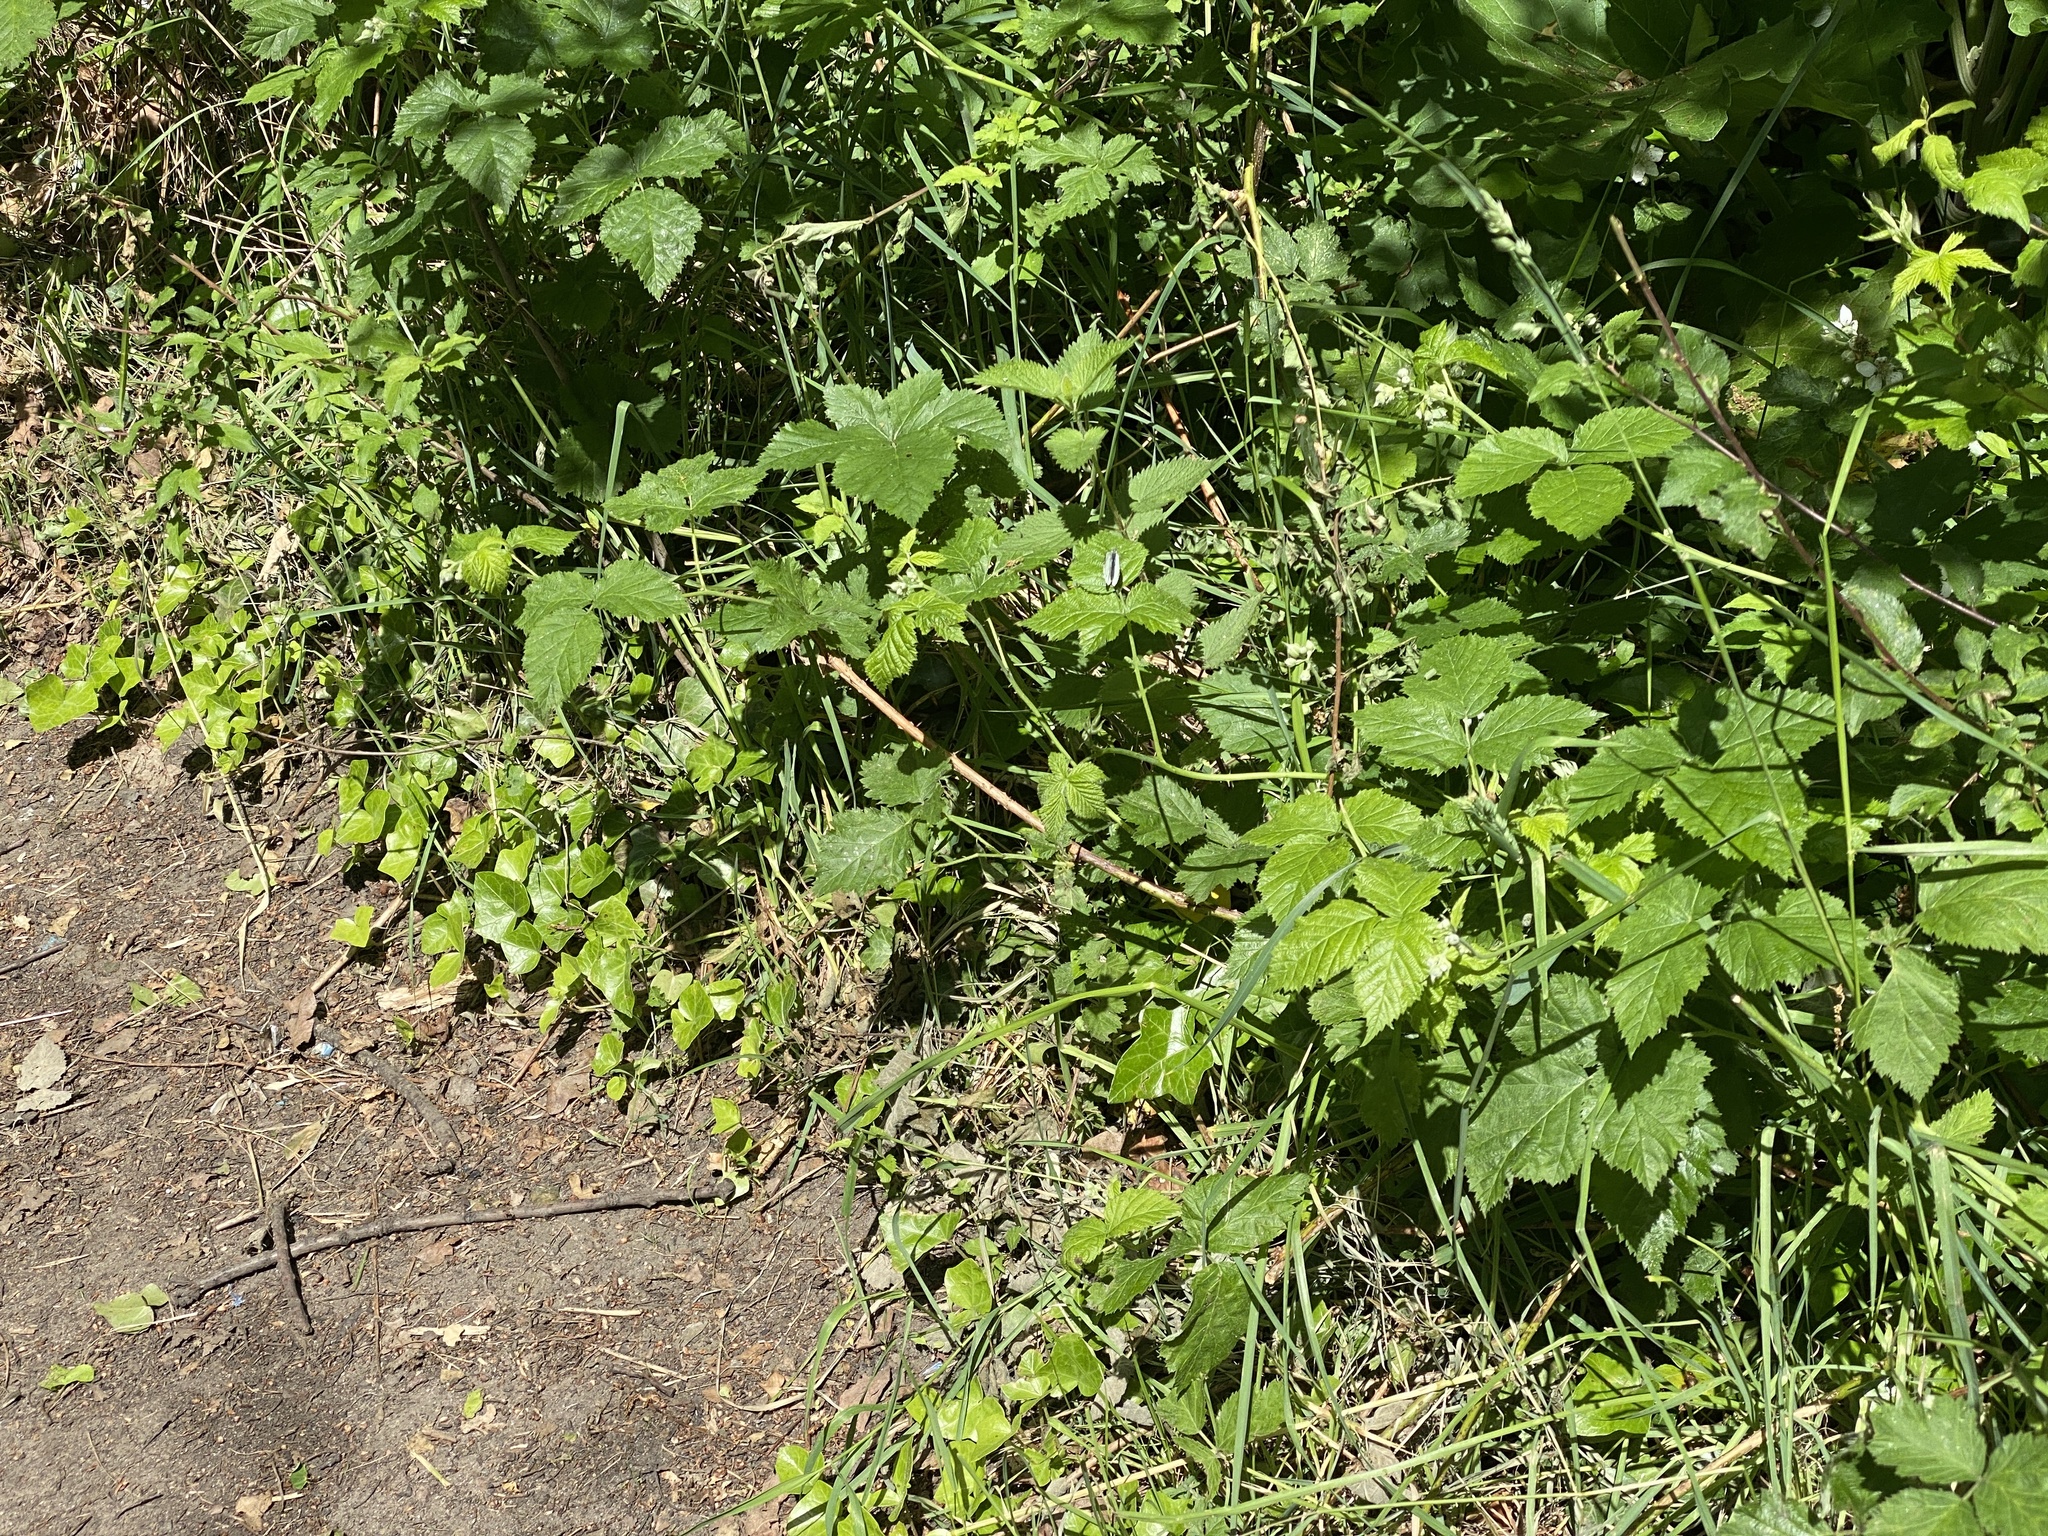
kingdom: Animalia
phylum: Arthropoda
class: Insecta
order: Lepidoptera
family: Pieridae
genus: Pieris
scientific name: Pieris napi
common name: Green-veined white
